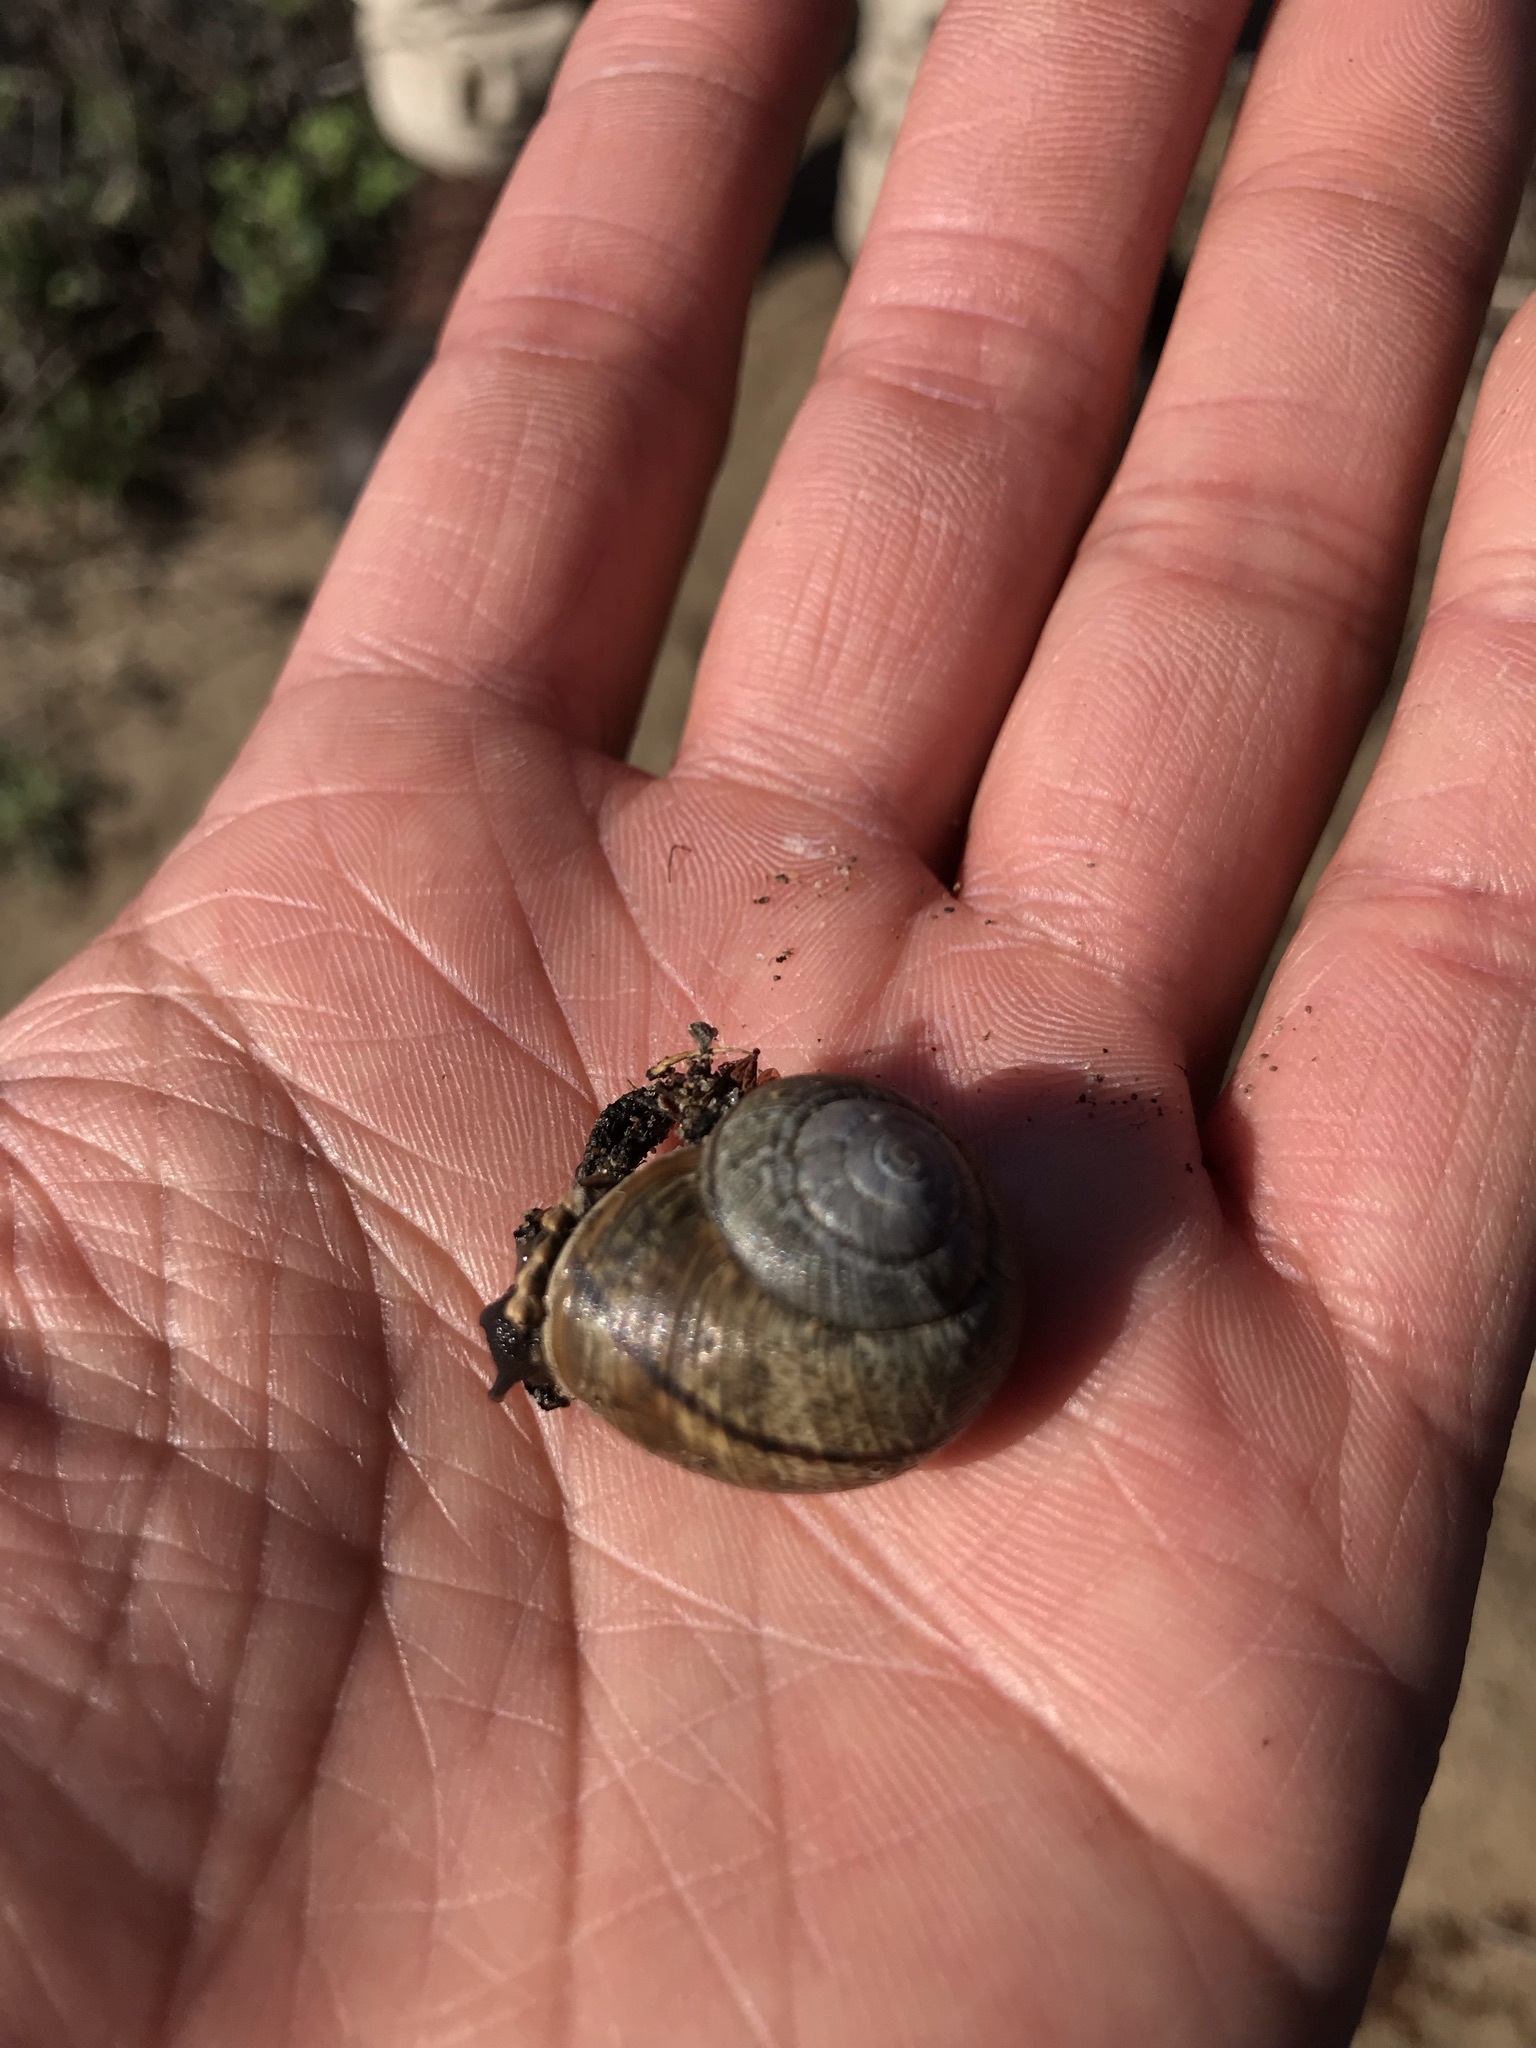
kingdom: Animalia
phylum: Mollusca
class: Gastropoda
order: Stylommatophora
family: Xanthonychidae
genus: Helminthoglypta
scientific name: Helminthoglypta nickliniana
